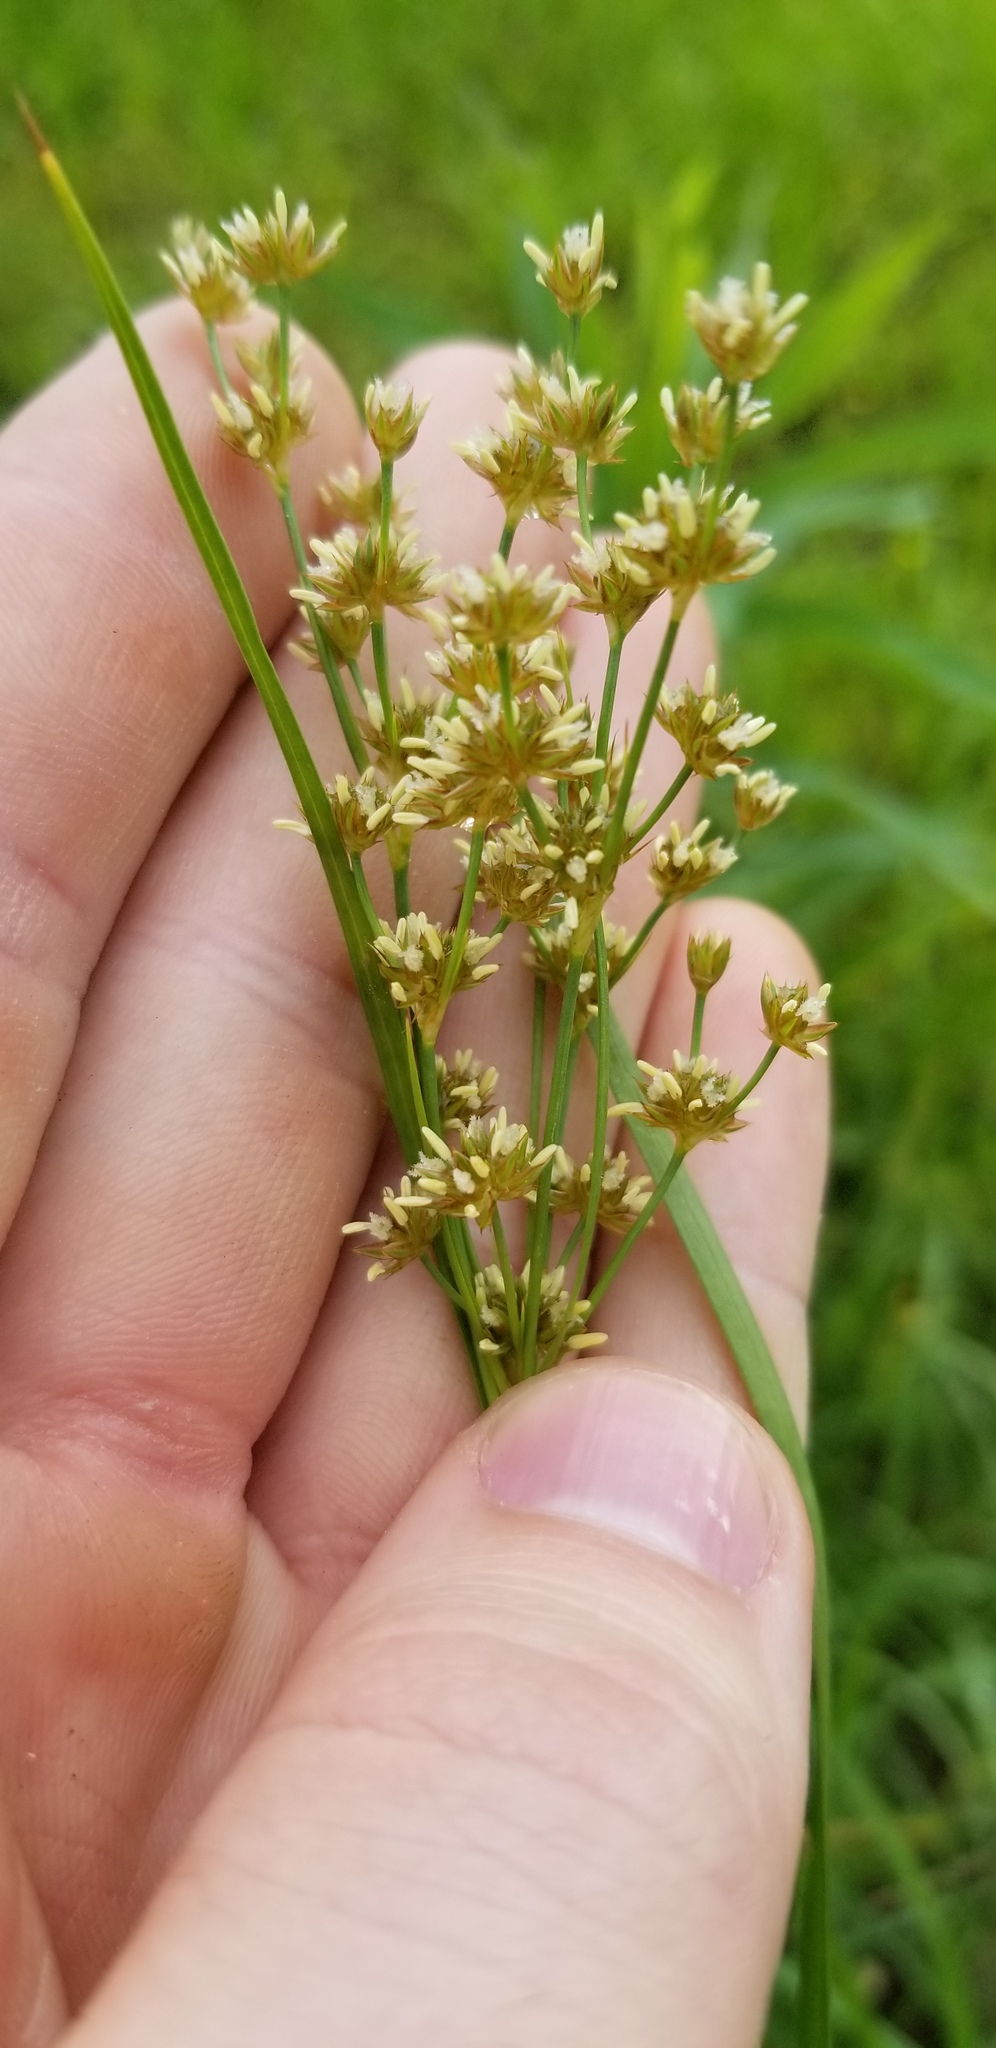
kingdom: Plantae
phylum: Tracheophyta
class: Liliopsida
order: Poales
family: Juncaceae
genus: Juncus
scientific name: Juncus biflorus
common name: Two-flowered rush
